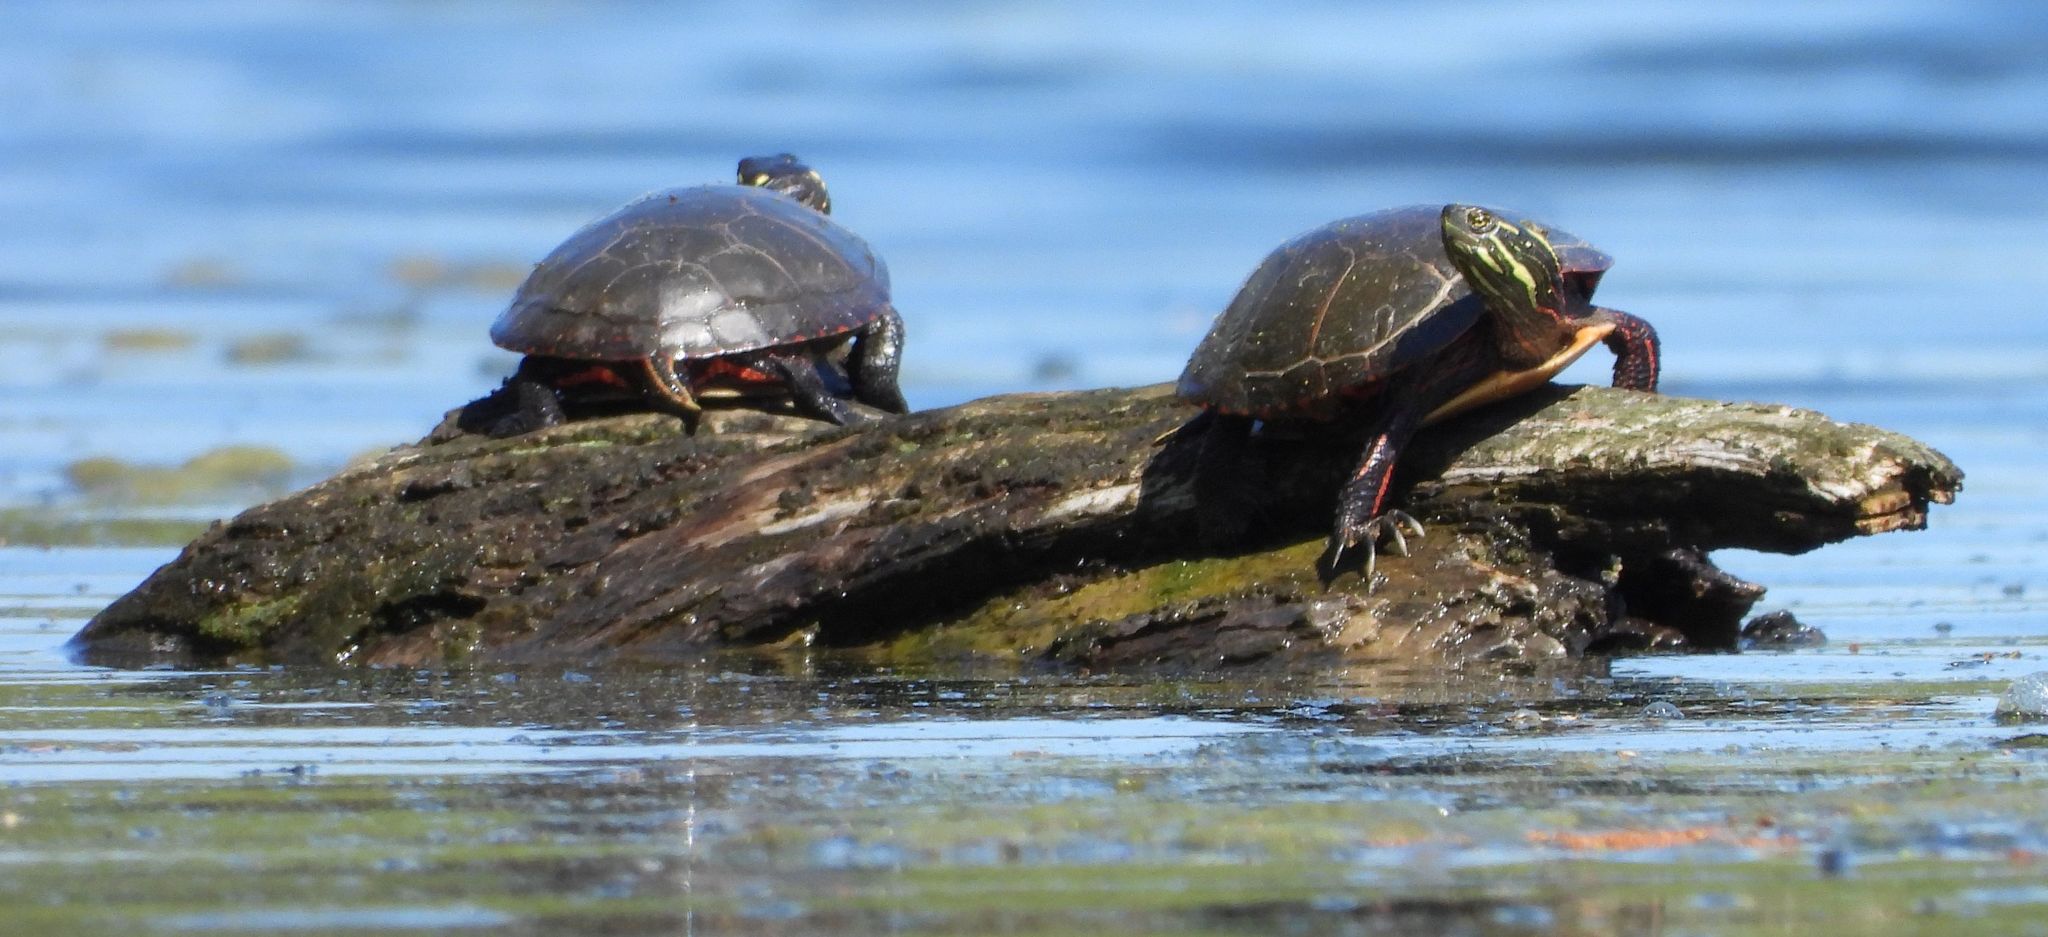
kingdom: Animalia
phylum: Chordata
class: Testudines
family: Emydidae
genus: Chrysemys
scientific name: Chrysemys picta
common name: Painted turtle
